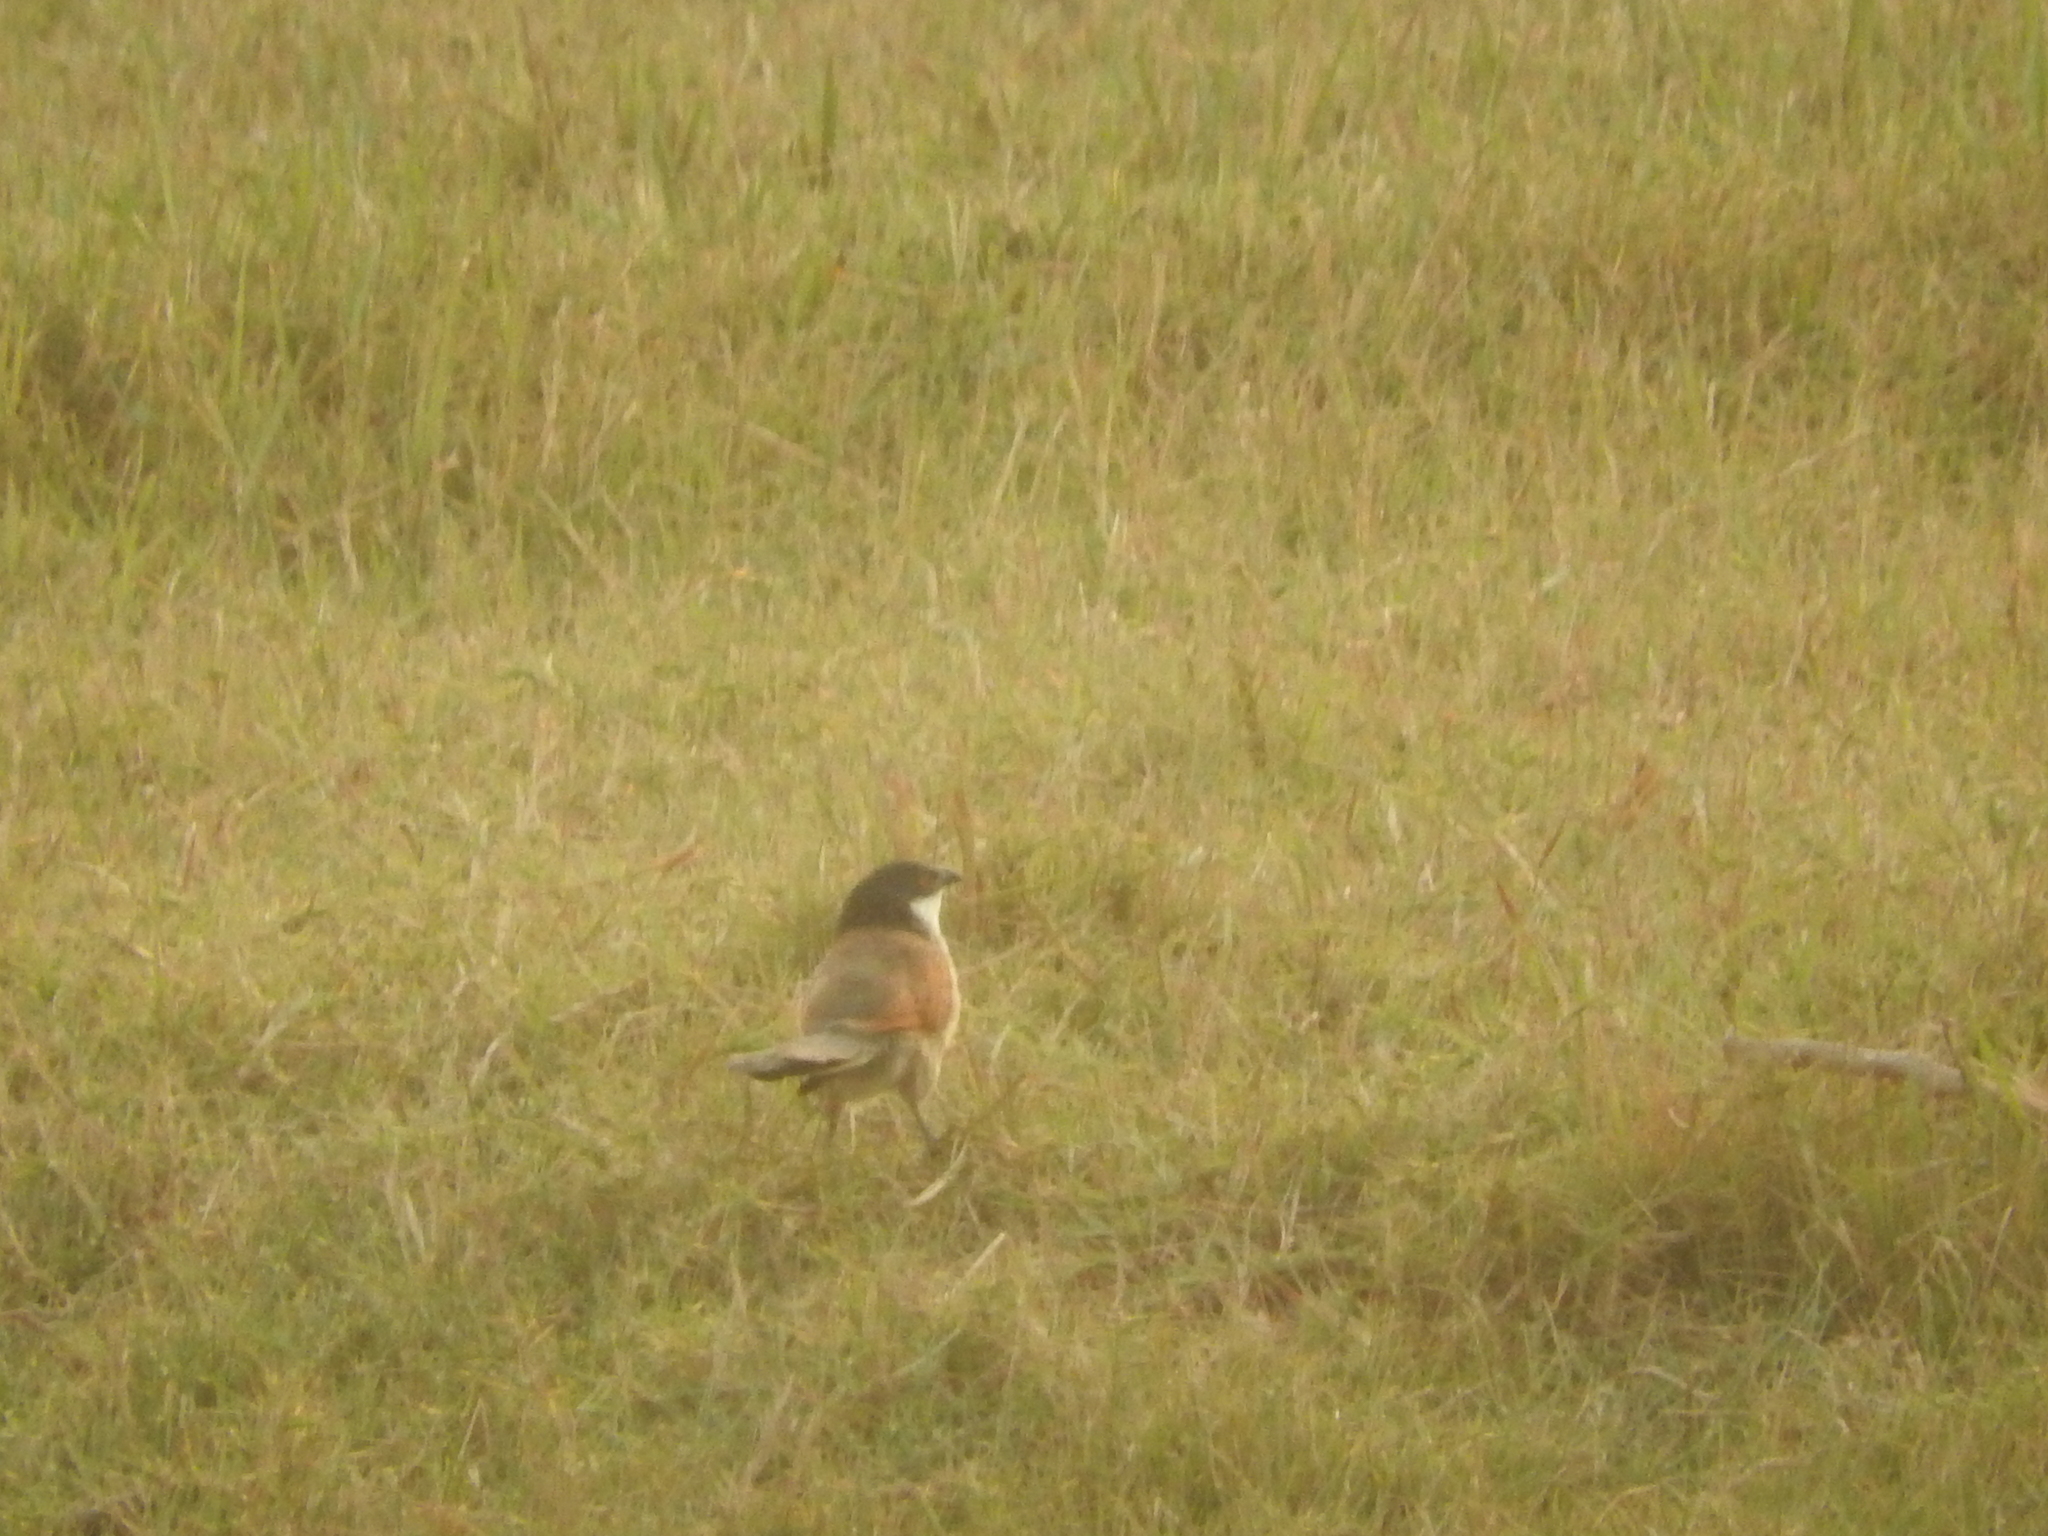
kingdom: Animalia
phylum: Chordata
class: Aves
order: Cuculiformes
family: Cuculidae
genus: Centropus
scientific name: Centropus senegalensis
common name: Senegal coucal
